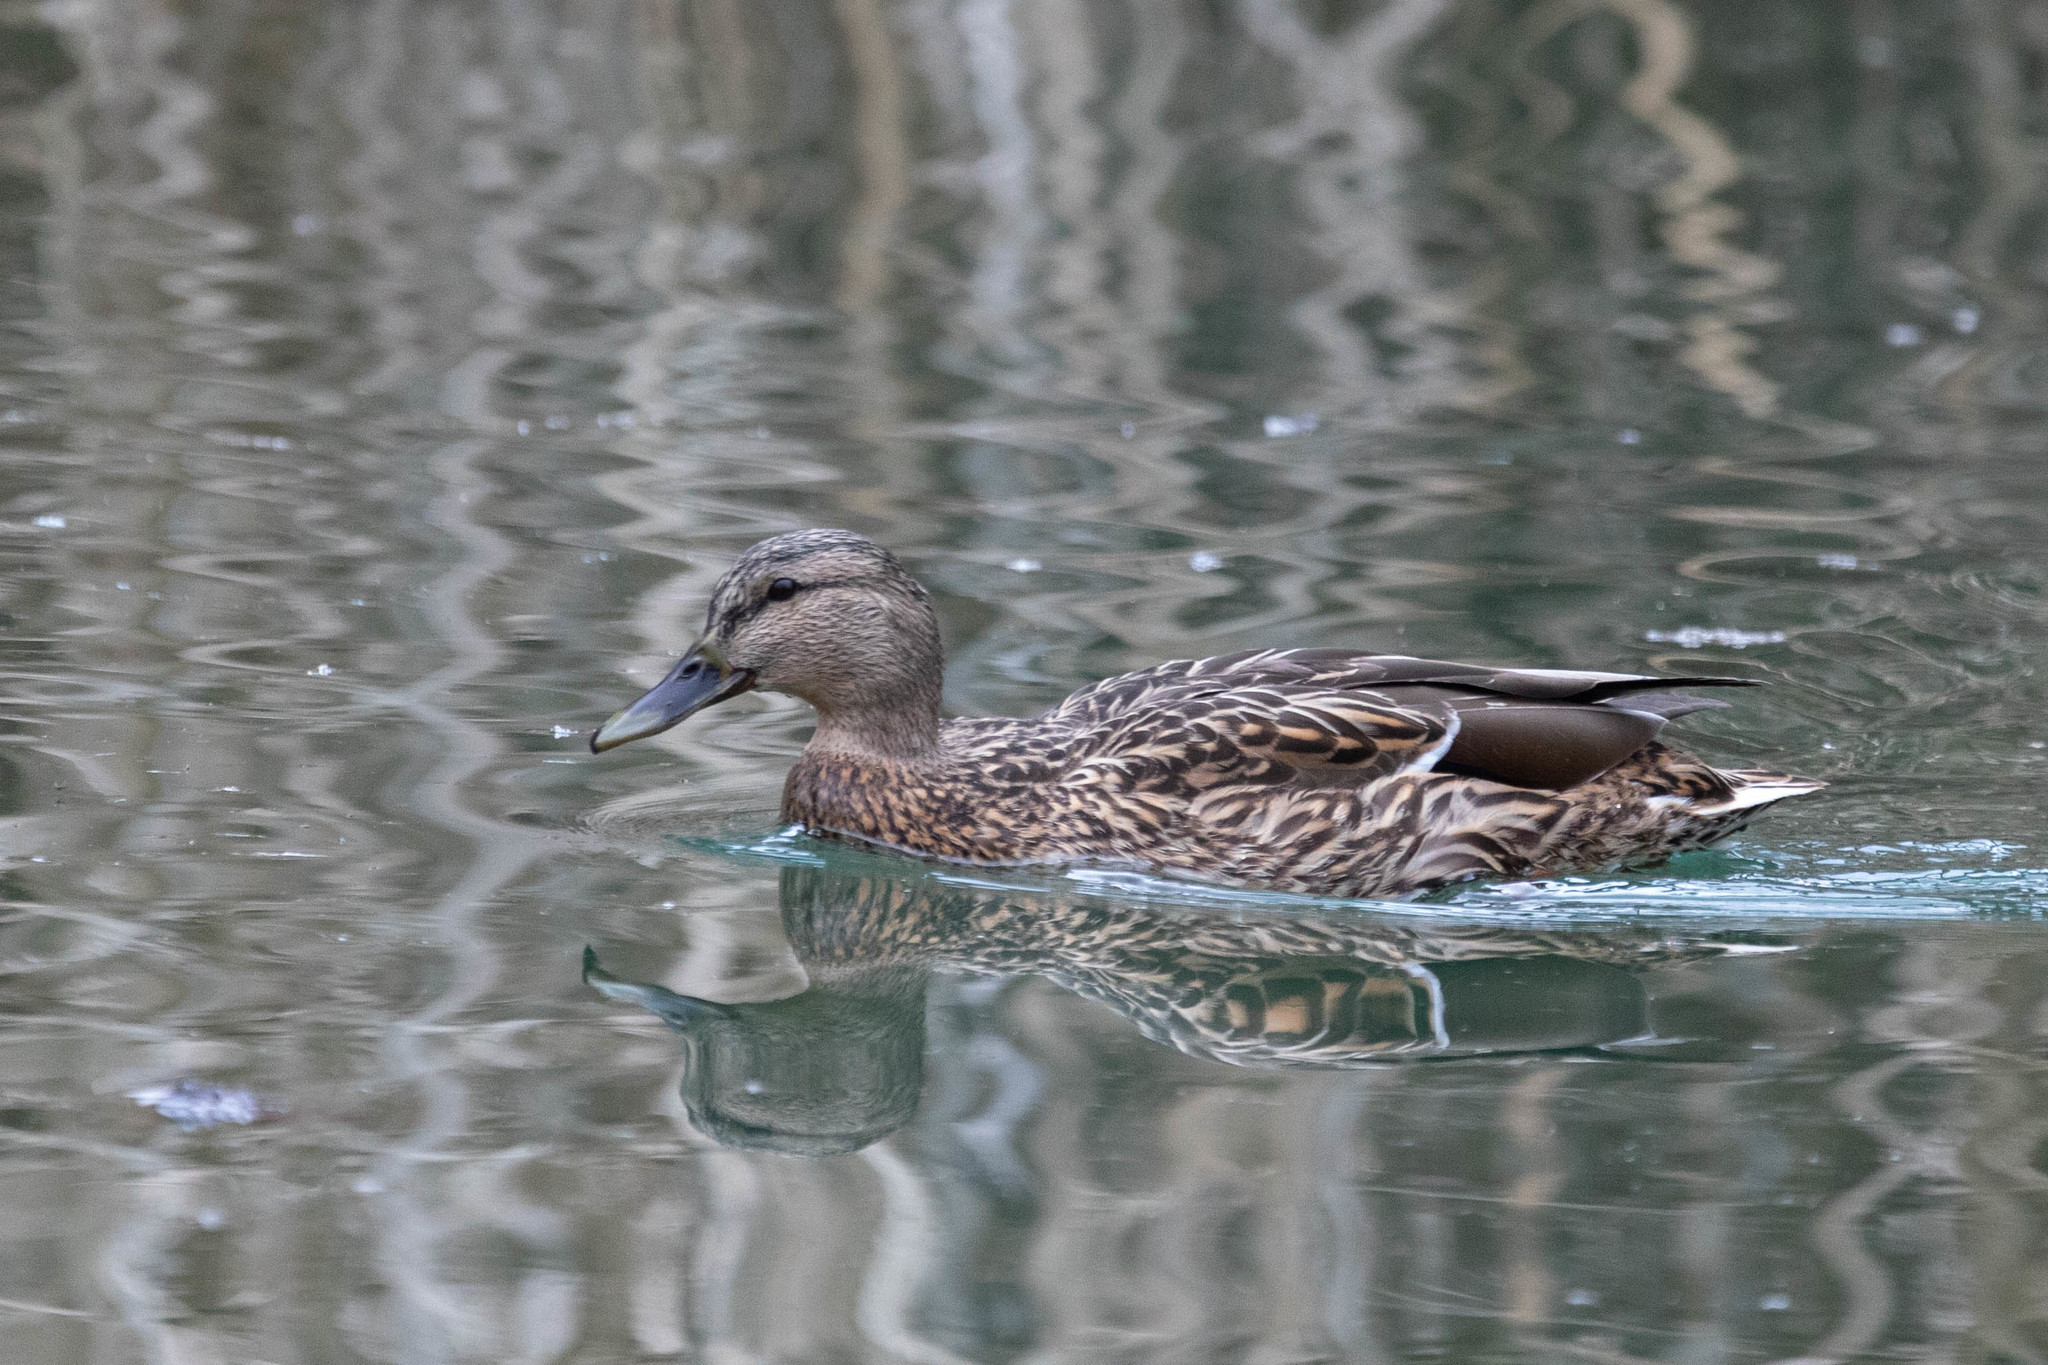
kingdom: Animalia
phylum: Chordata
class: Aves
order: Anseriformes
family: Anatidae
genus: Anas
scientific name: Anas platyrhynchos
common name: Mallard
